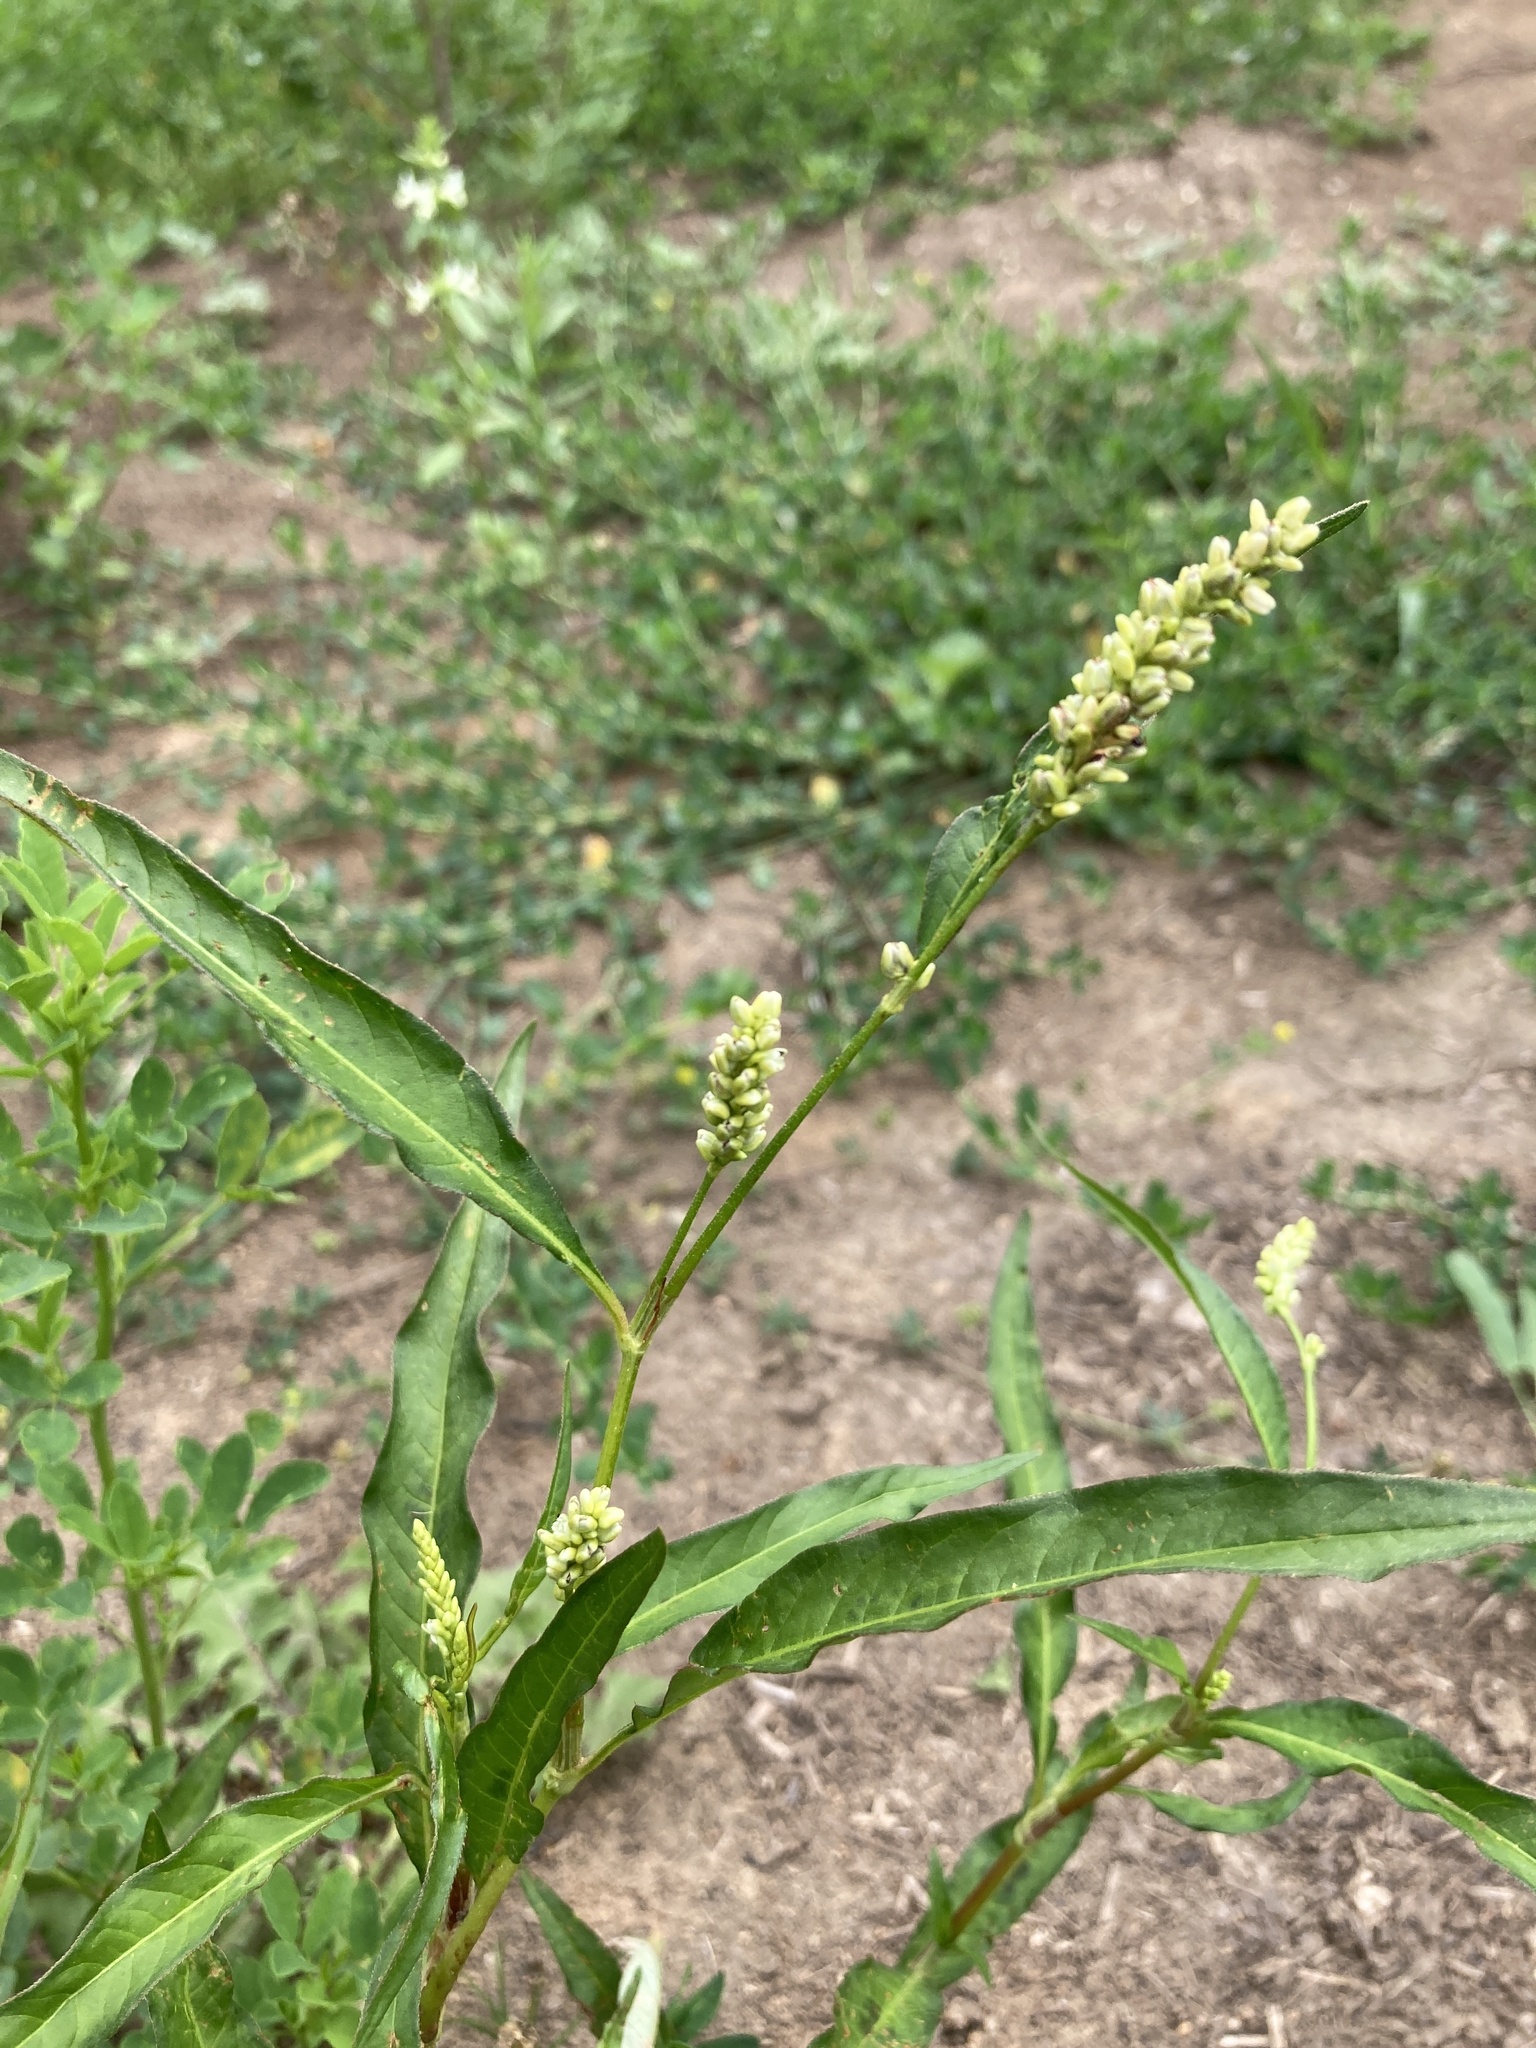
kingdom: Plantae
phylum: Tracheophyta
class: Magnoliopsida
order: Caryophyllales
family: Polygonaceae
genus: Persicaria
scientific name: Persicaria lapathifolia
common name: Curlytop knotweed
